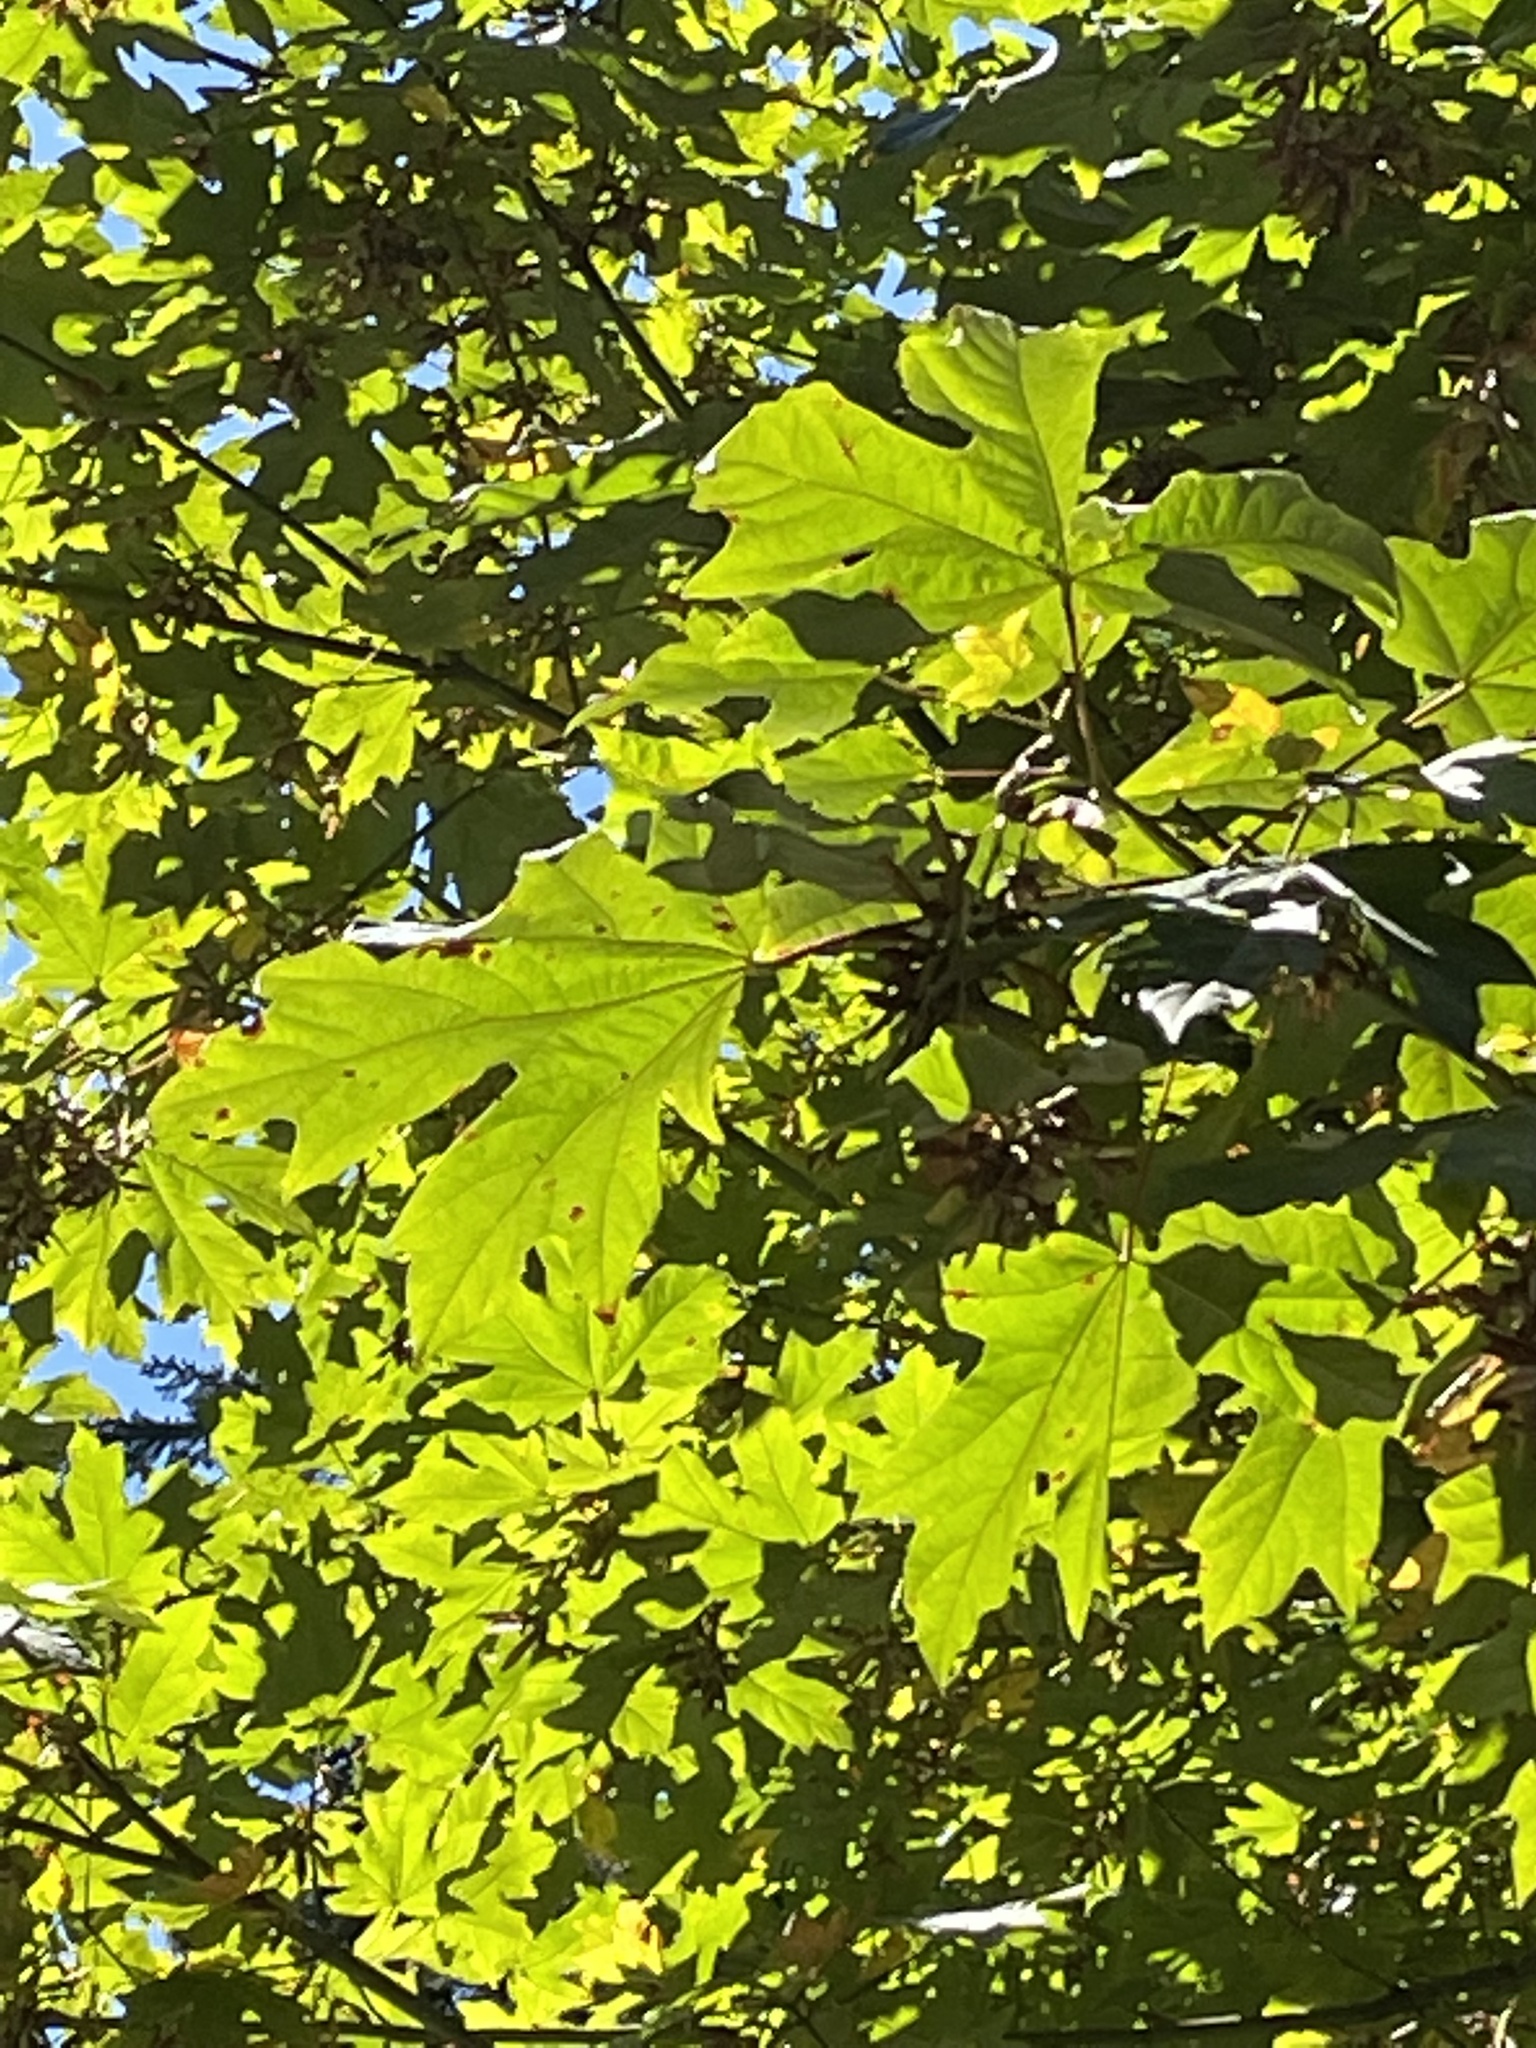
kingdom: Plantae
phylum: Tracheophyta
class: Magnoliopsida
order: Sapindales
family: Sapindaceae
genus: Acer
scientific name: Acer macrophyllum
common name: Oregon maple
